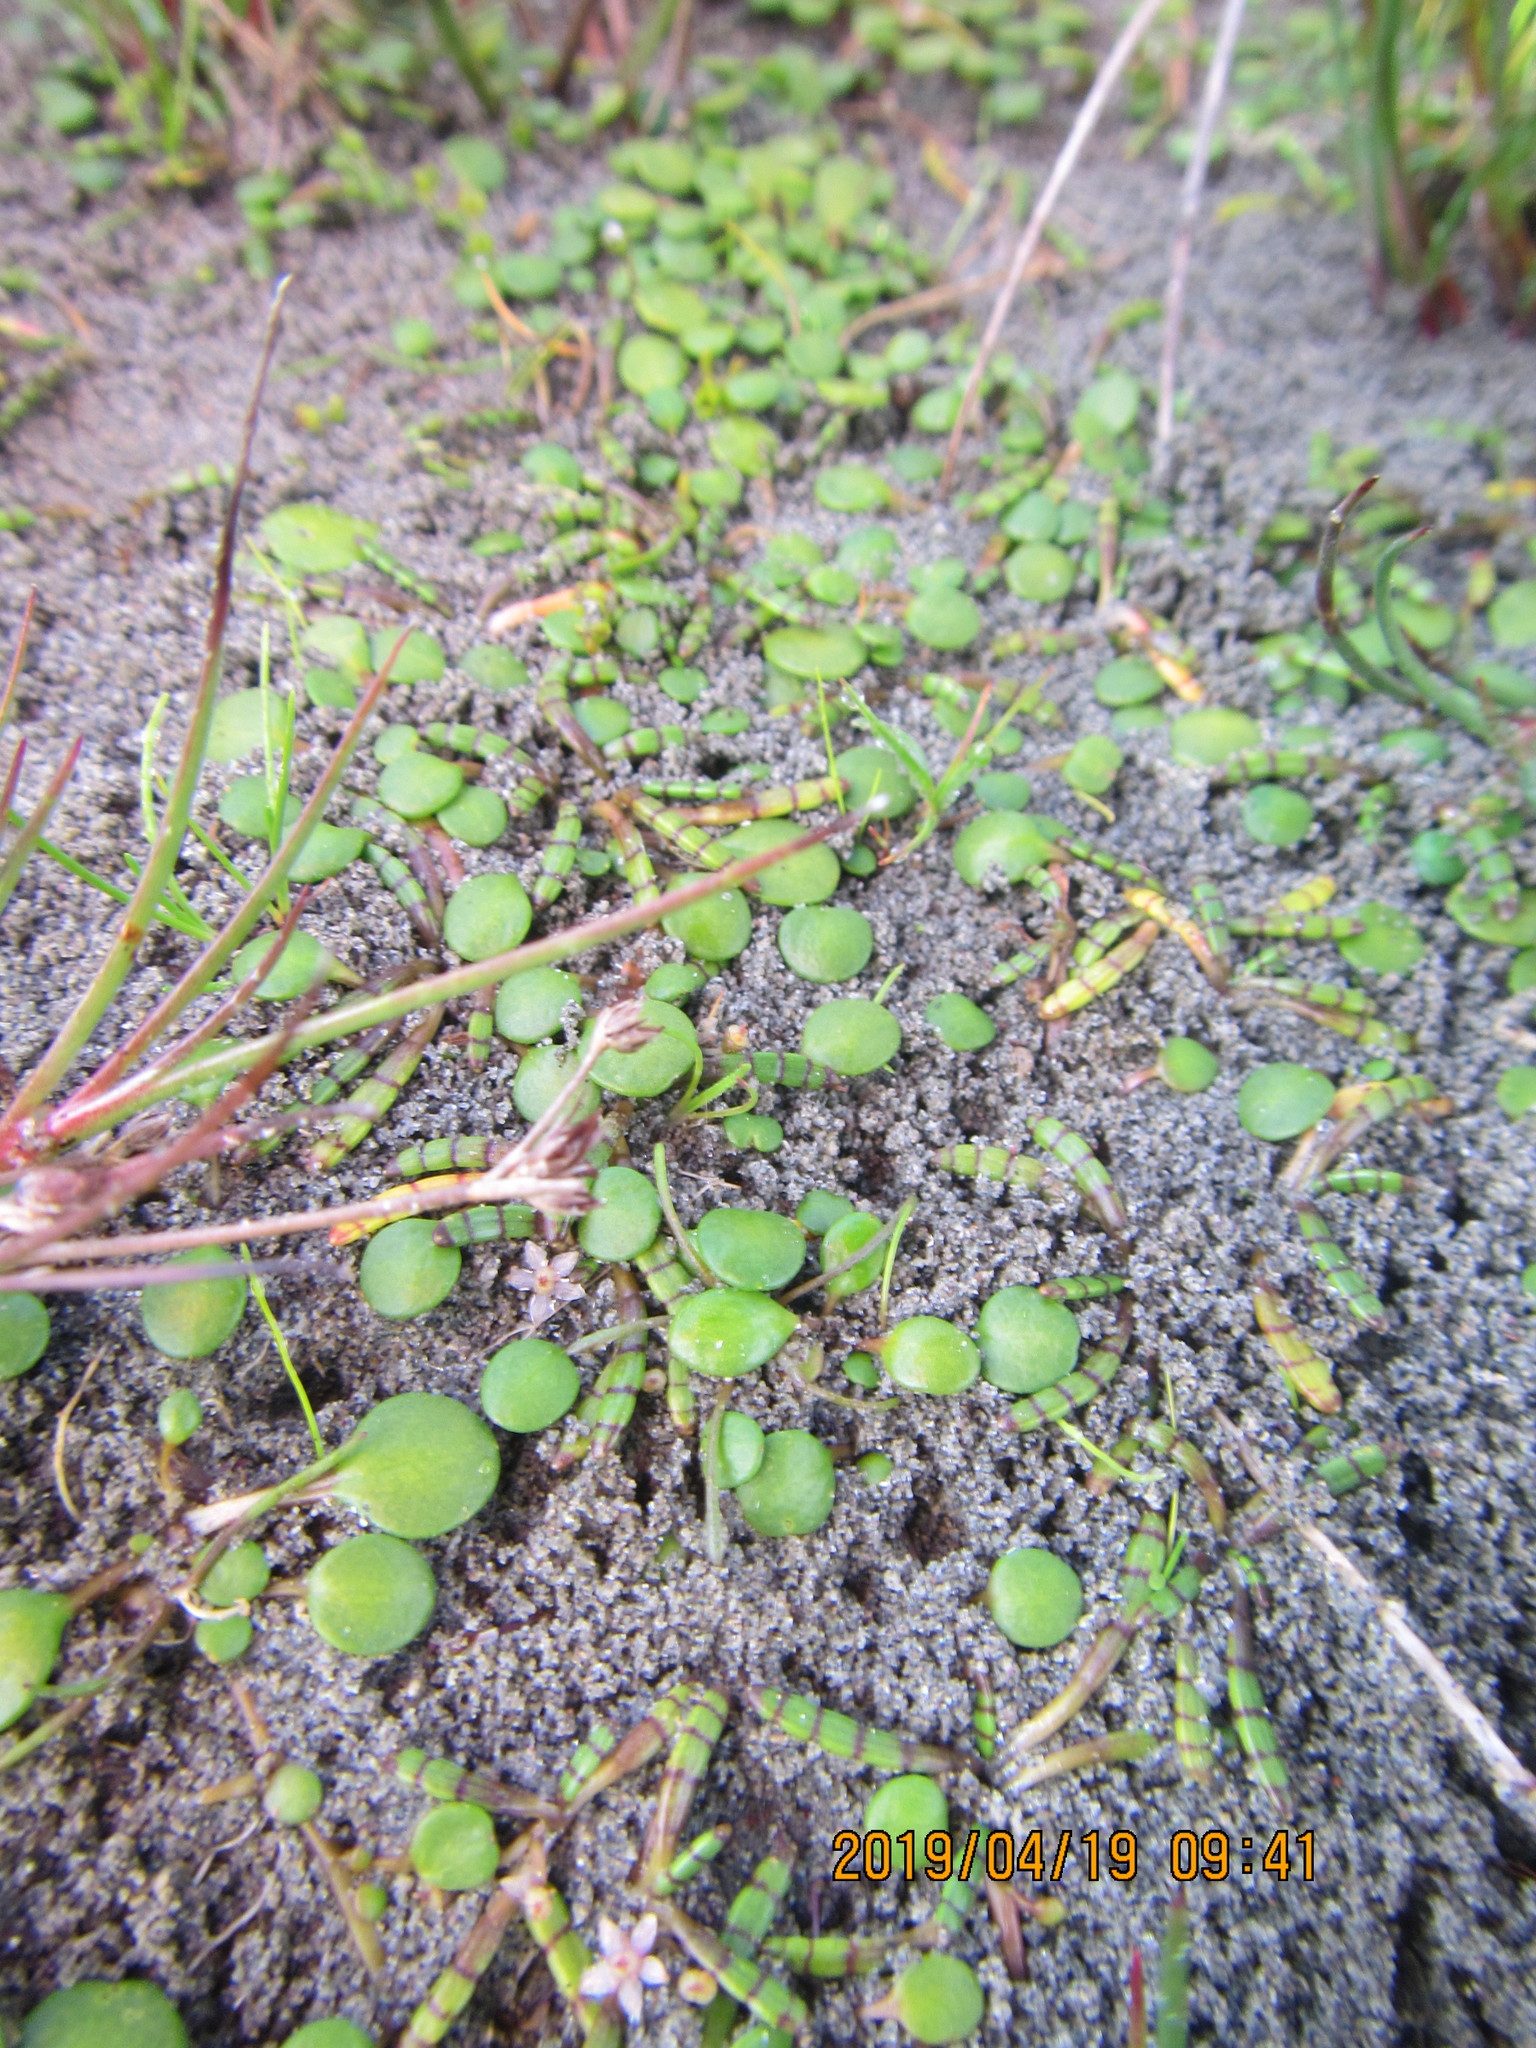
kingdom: Plantae
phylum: Tracheophyta
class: Magnoliopsida
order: Apiales
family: Apiaceae
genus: Lilaeopsis
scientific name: Lilaeopsis novae-zelandiae
